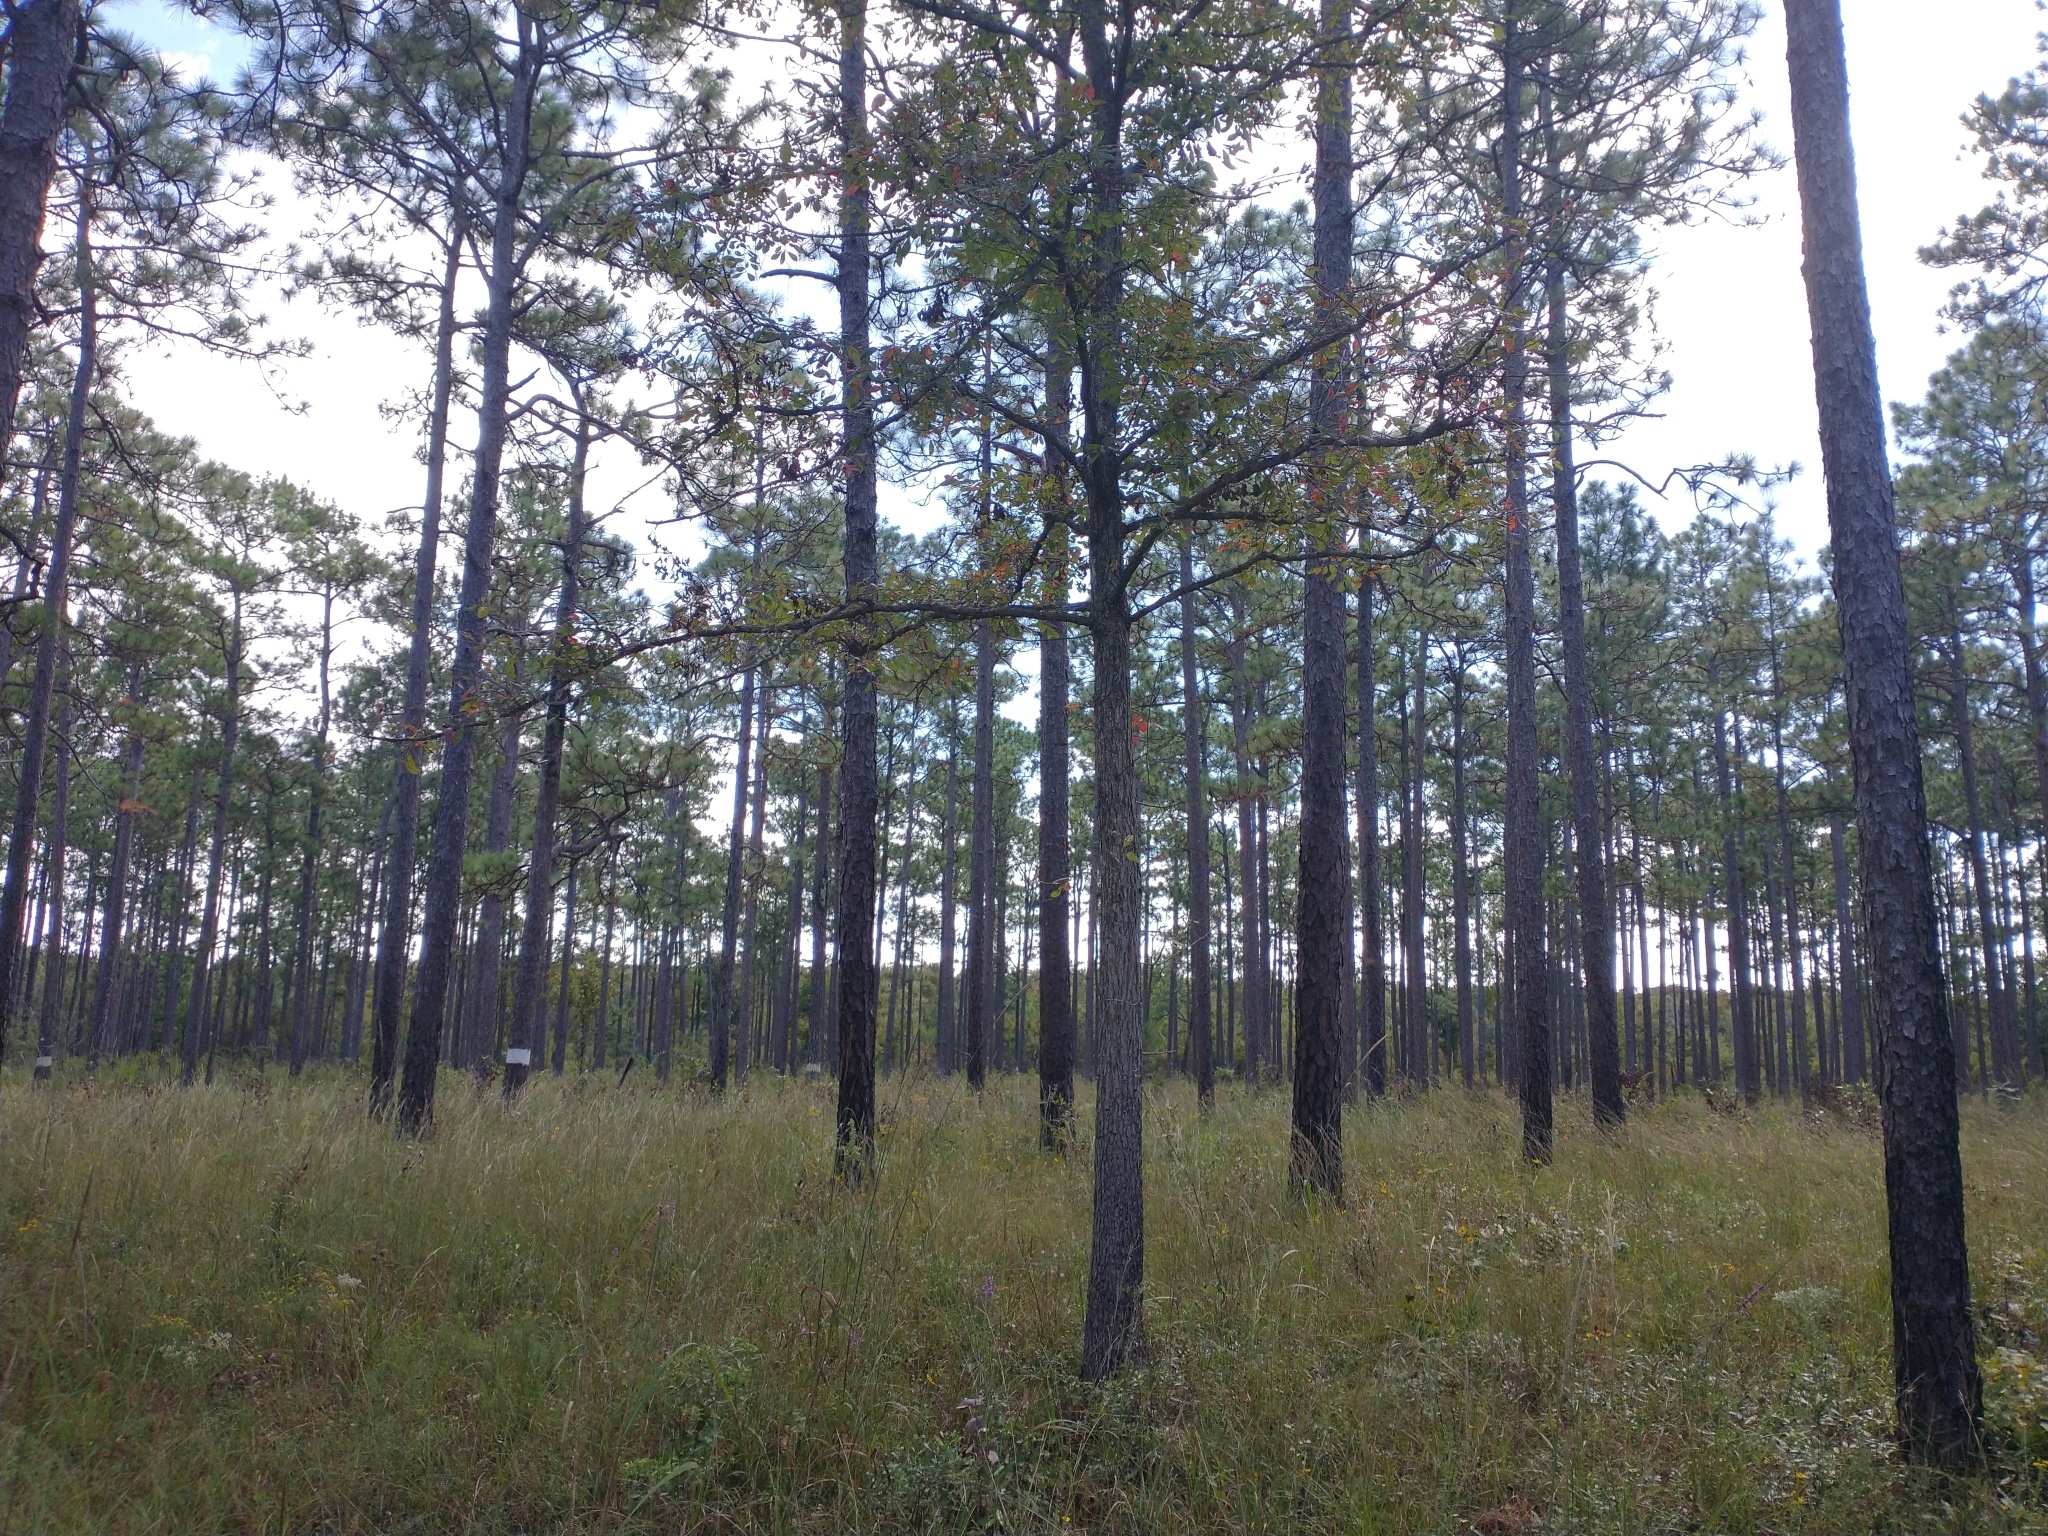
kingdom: Plantae
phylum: Tracheophyta
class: Pinopsida
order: Pinales
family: Pinaceae
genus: Pinus
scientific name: Pinus palustris
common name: Longleaf pine
